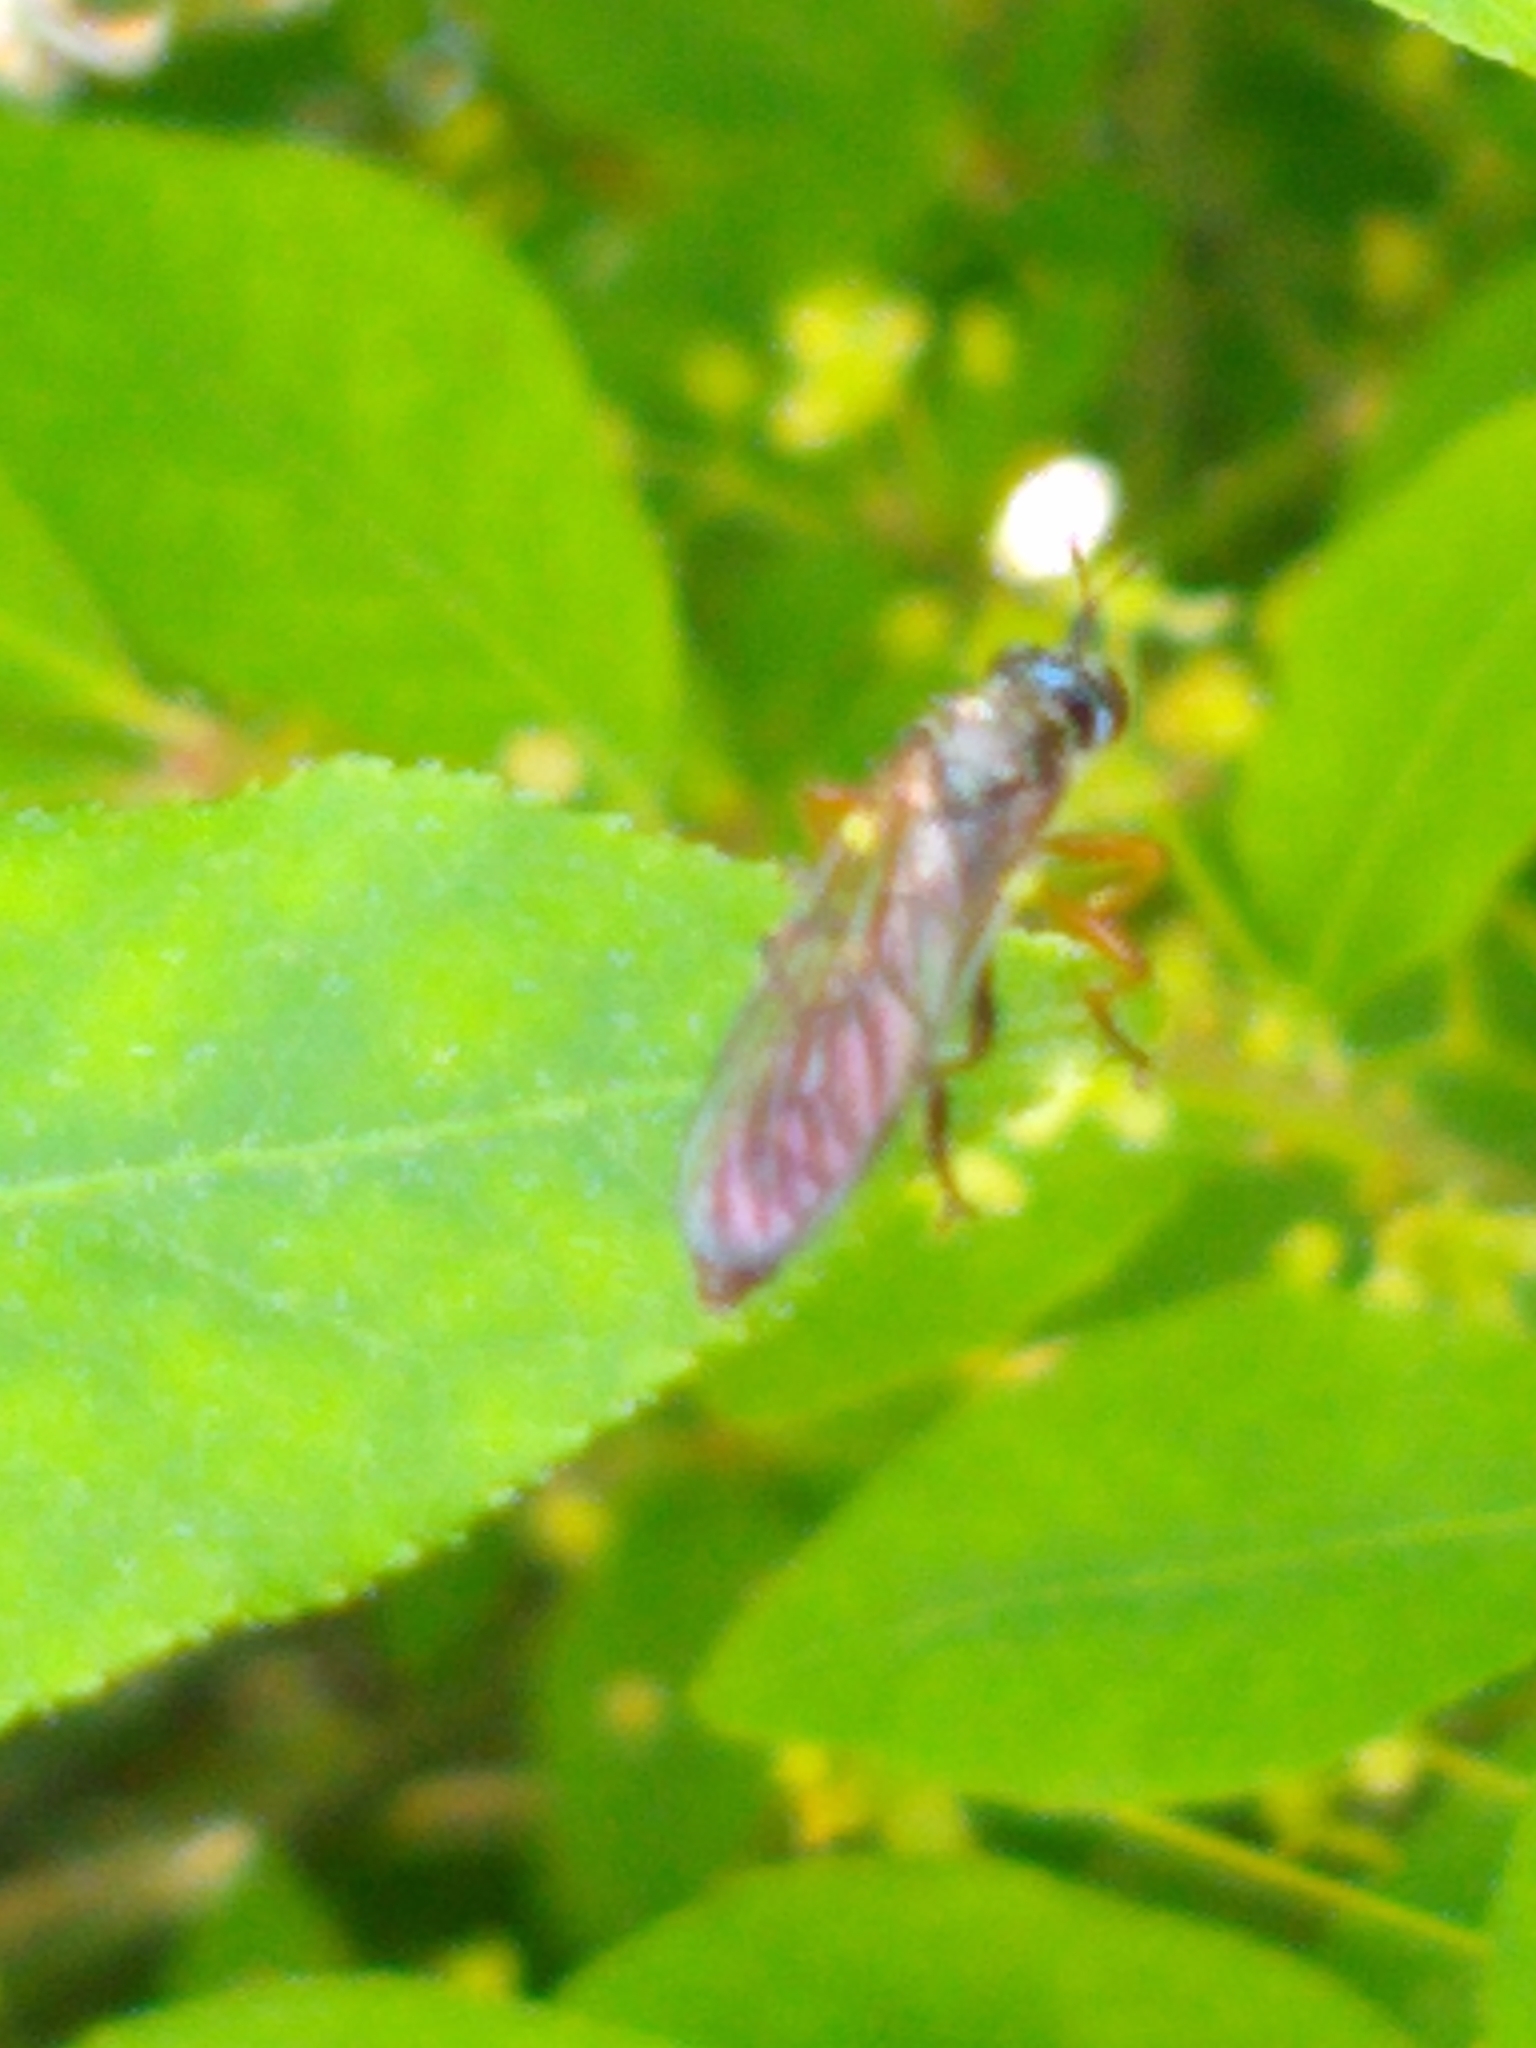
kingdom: Animalia
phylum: Arthropoda
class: Insecta
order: Diptera
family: Asilidae
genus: Dioctria
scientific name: Dioctria hyalipennis
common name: Stripe-legged robberfly
